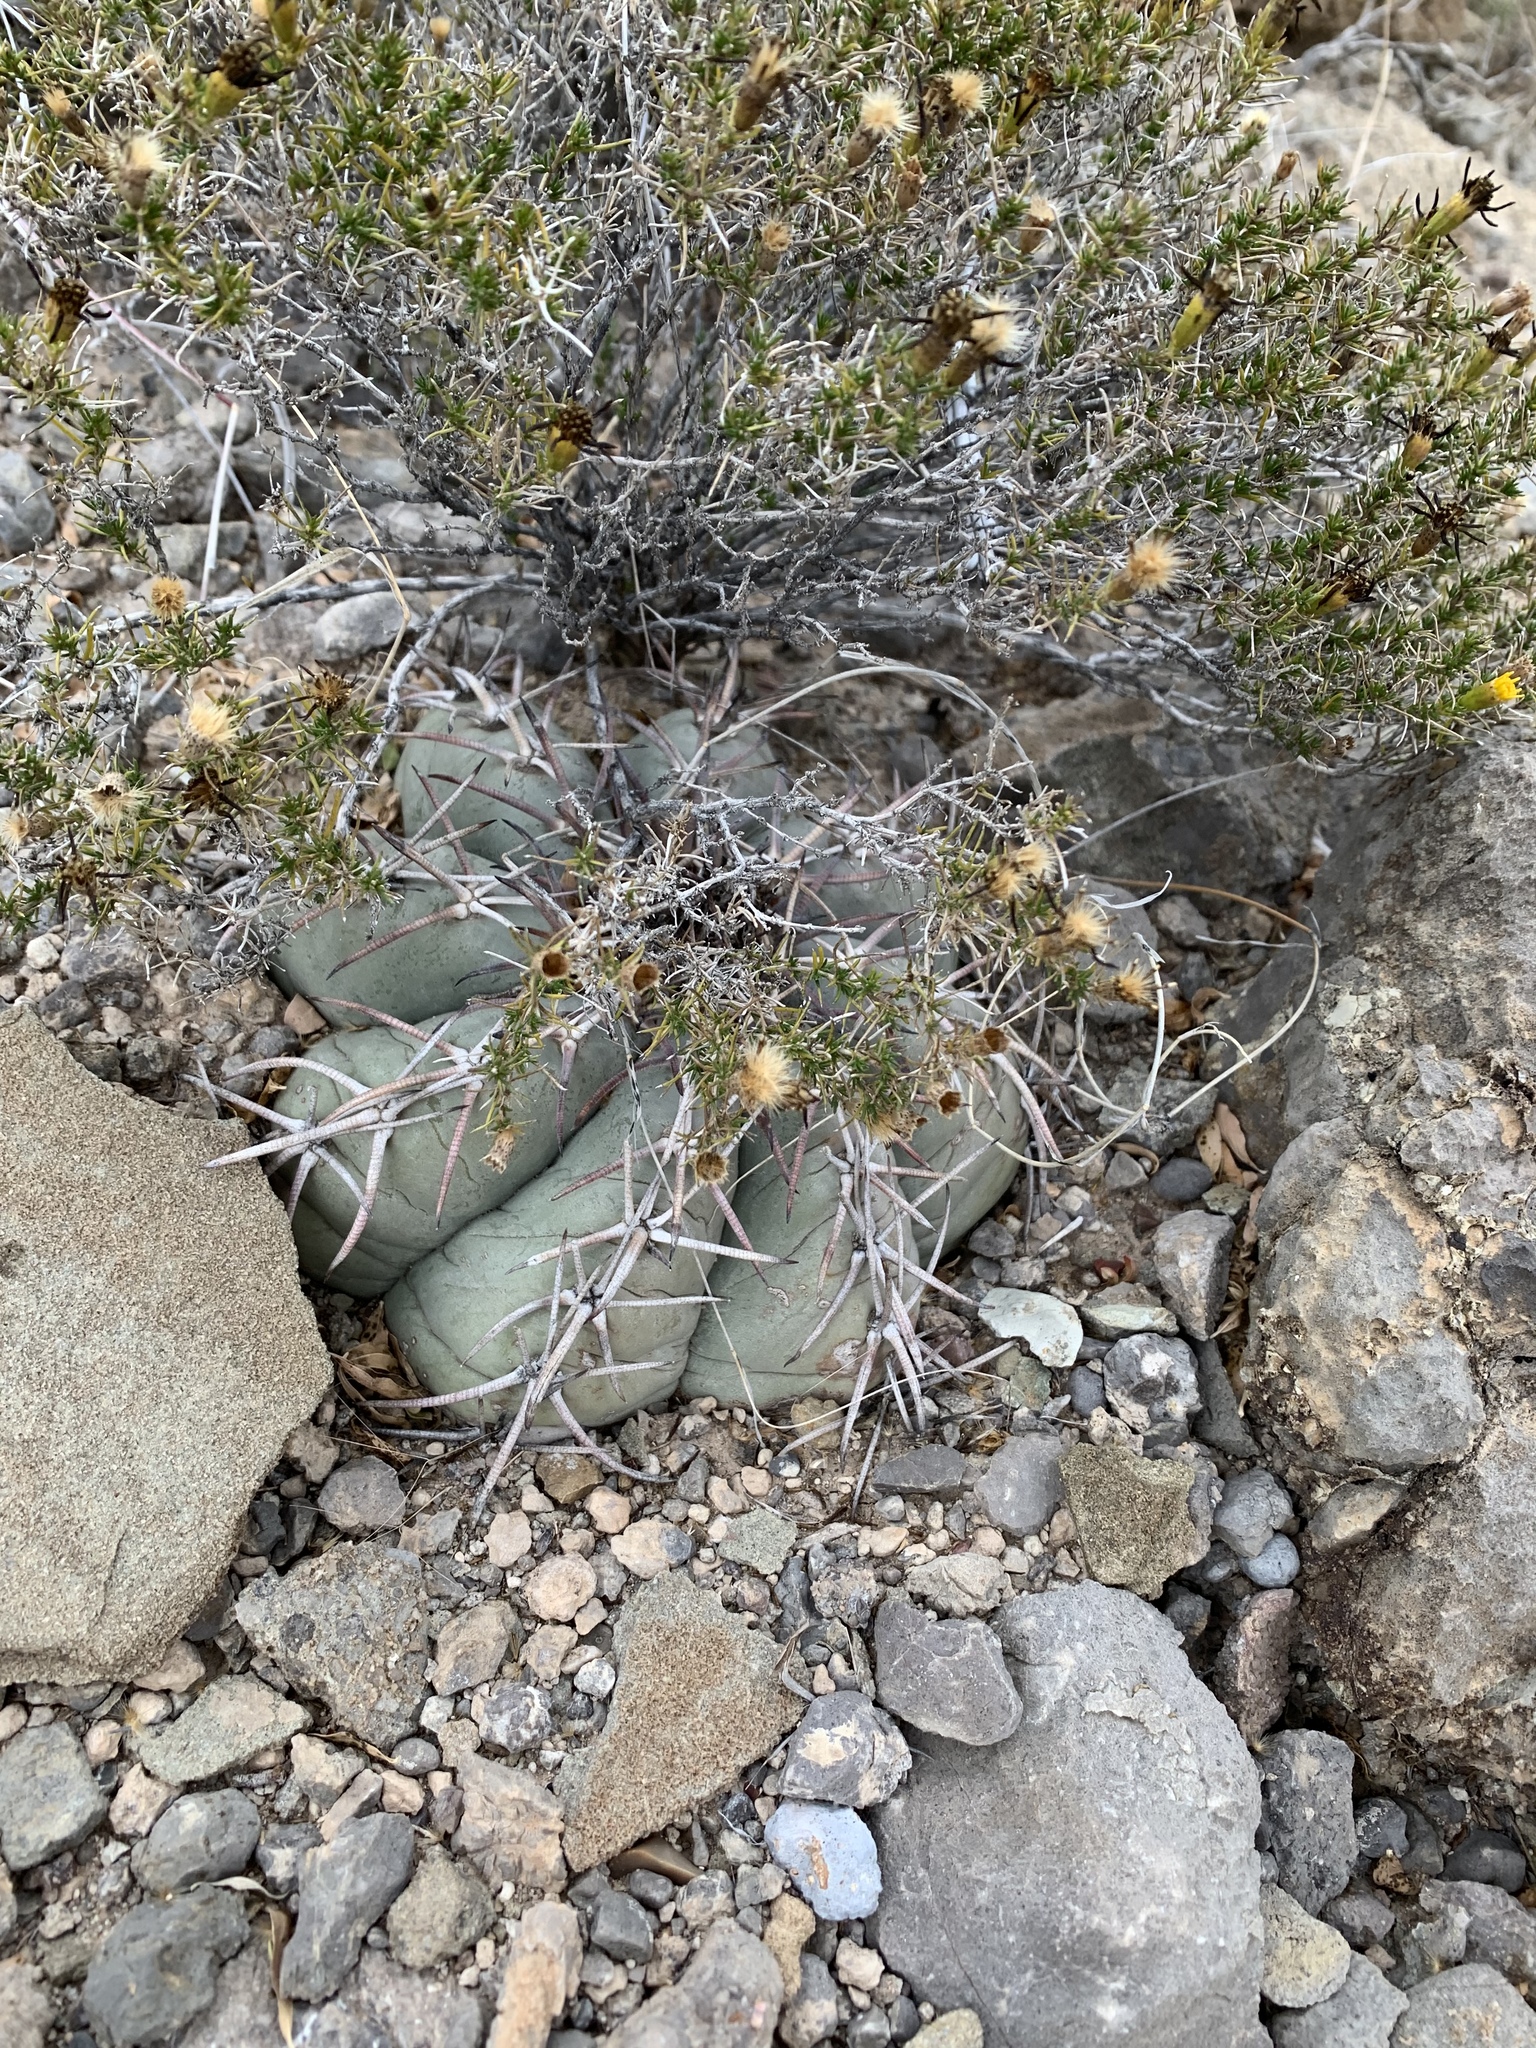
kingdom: Plantae
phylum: Tracheophyta
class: Magnoliopsida
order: Caryophyllales
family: Cactaceae
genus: Echinocactus
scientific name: Echinocactus horizonthalonius
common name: Devilshead
